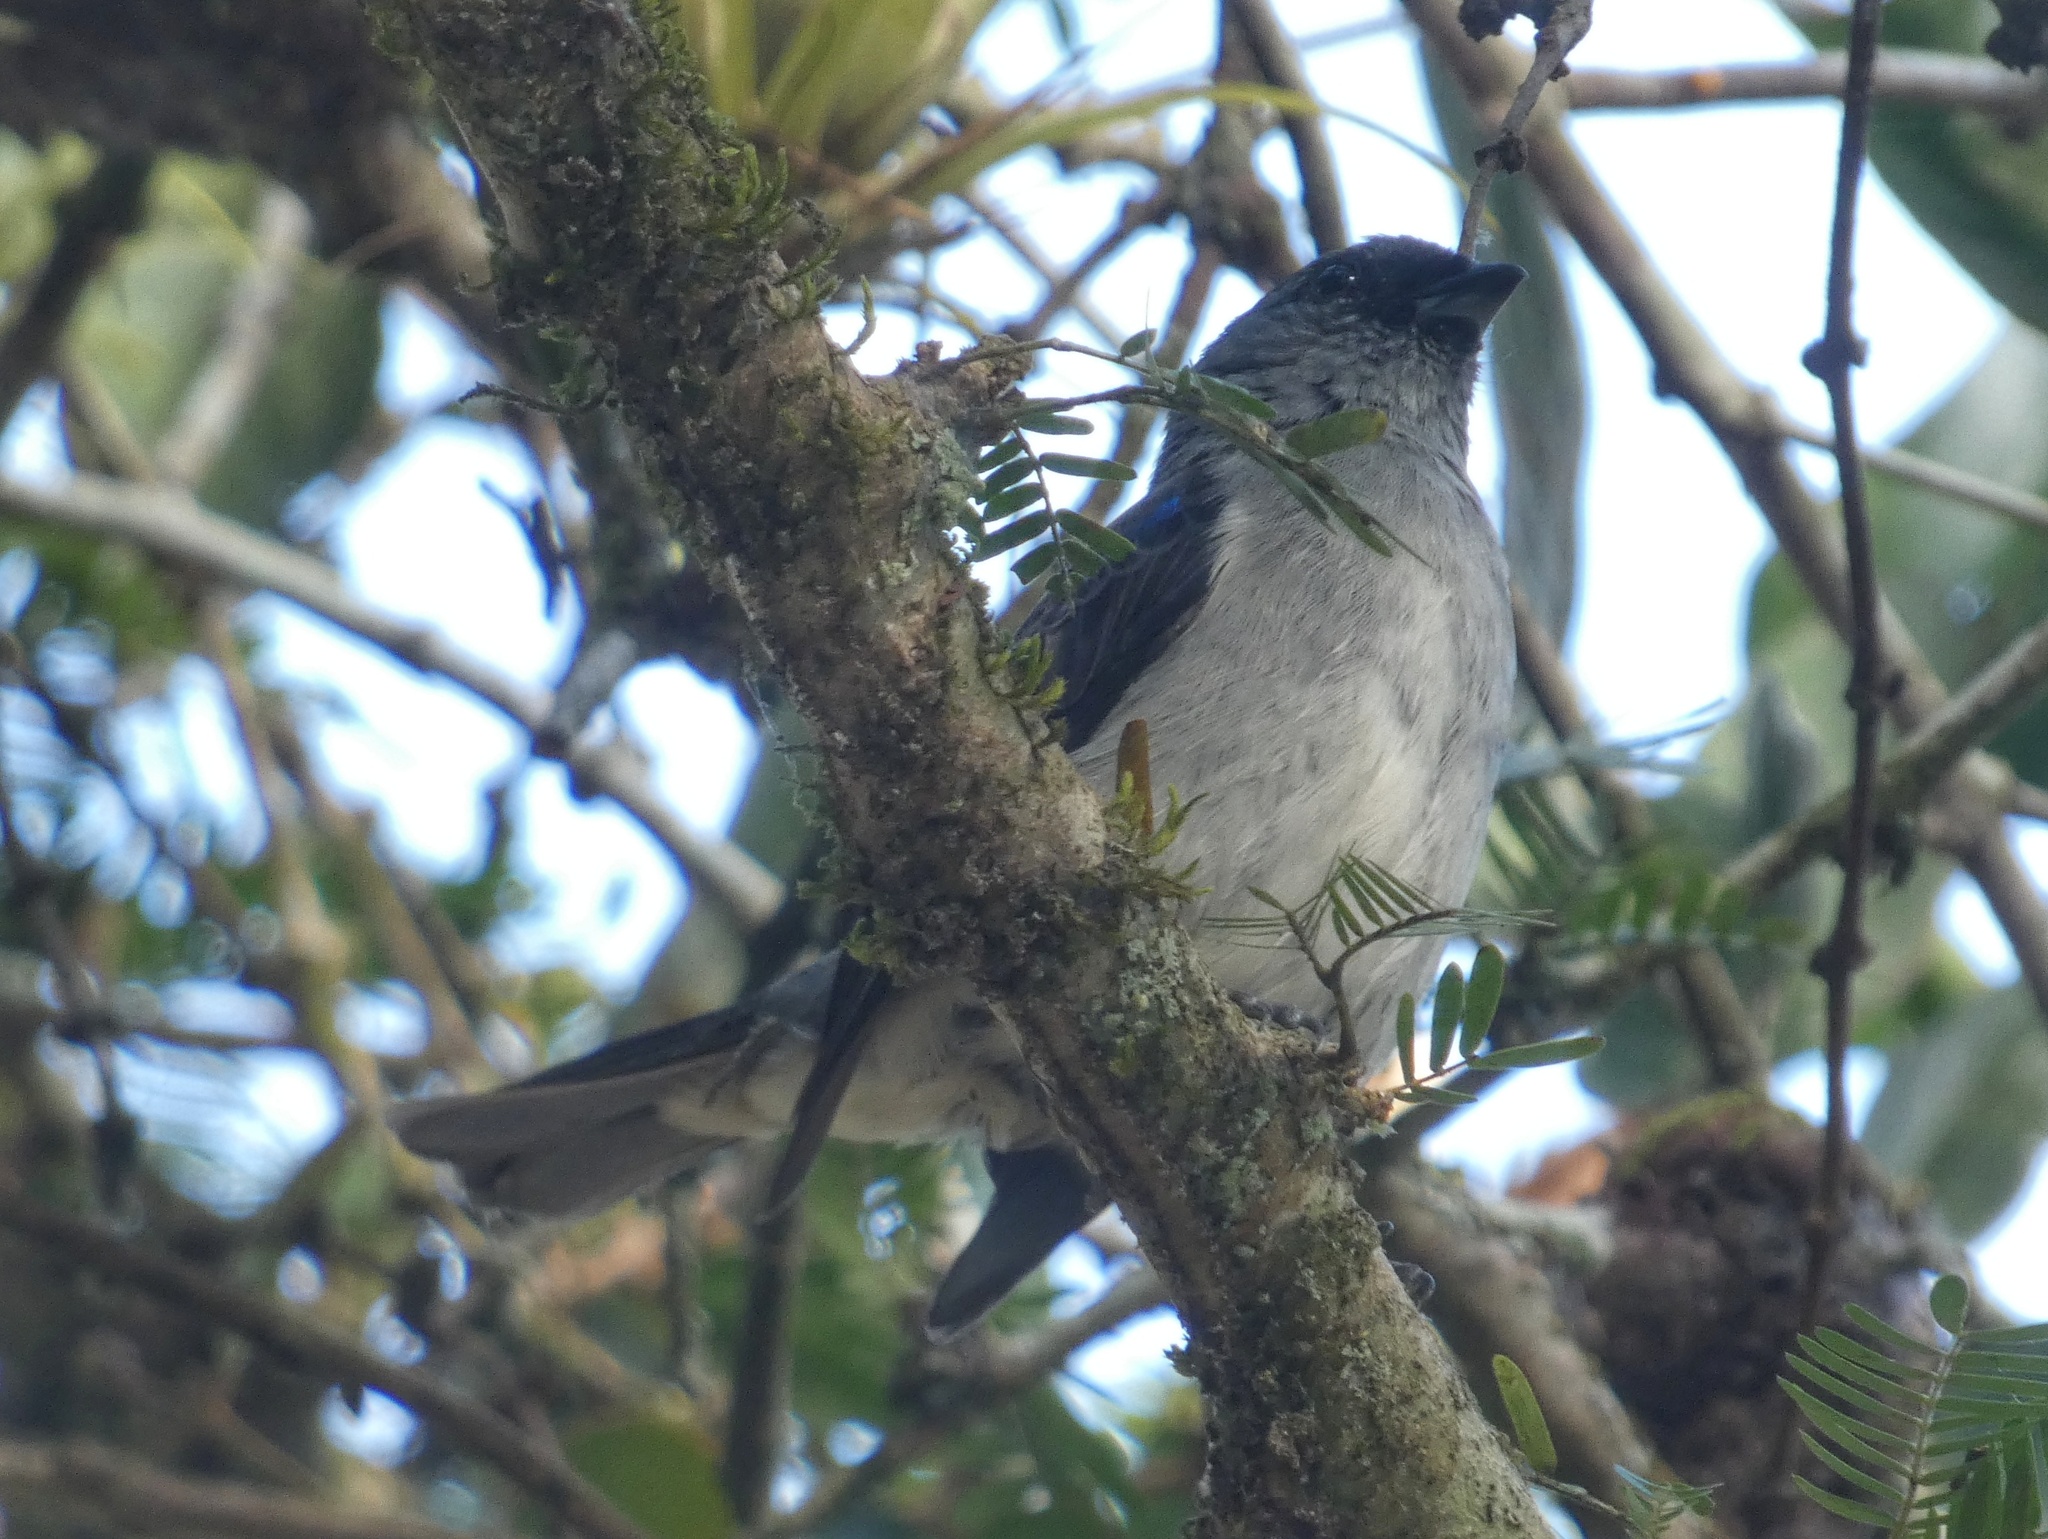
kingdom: Animalia
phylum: Chordata
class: Aves
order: Passeriformes
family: Thraupidae
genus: Tangara
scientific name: Tangara inornata
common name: Plain-colored tanager
